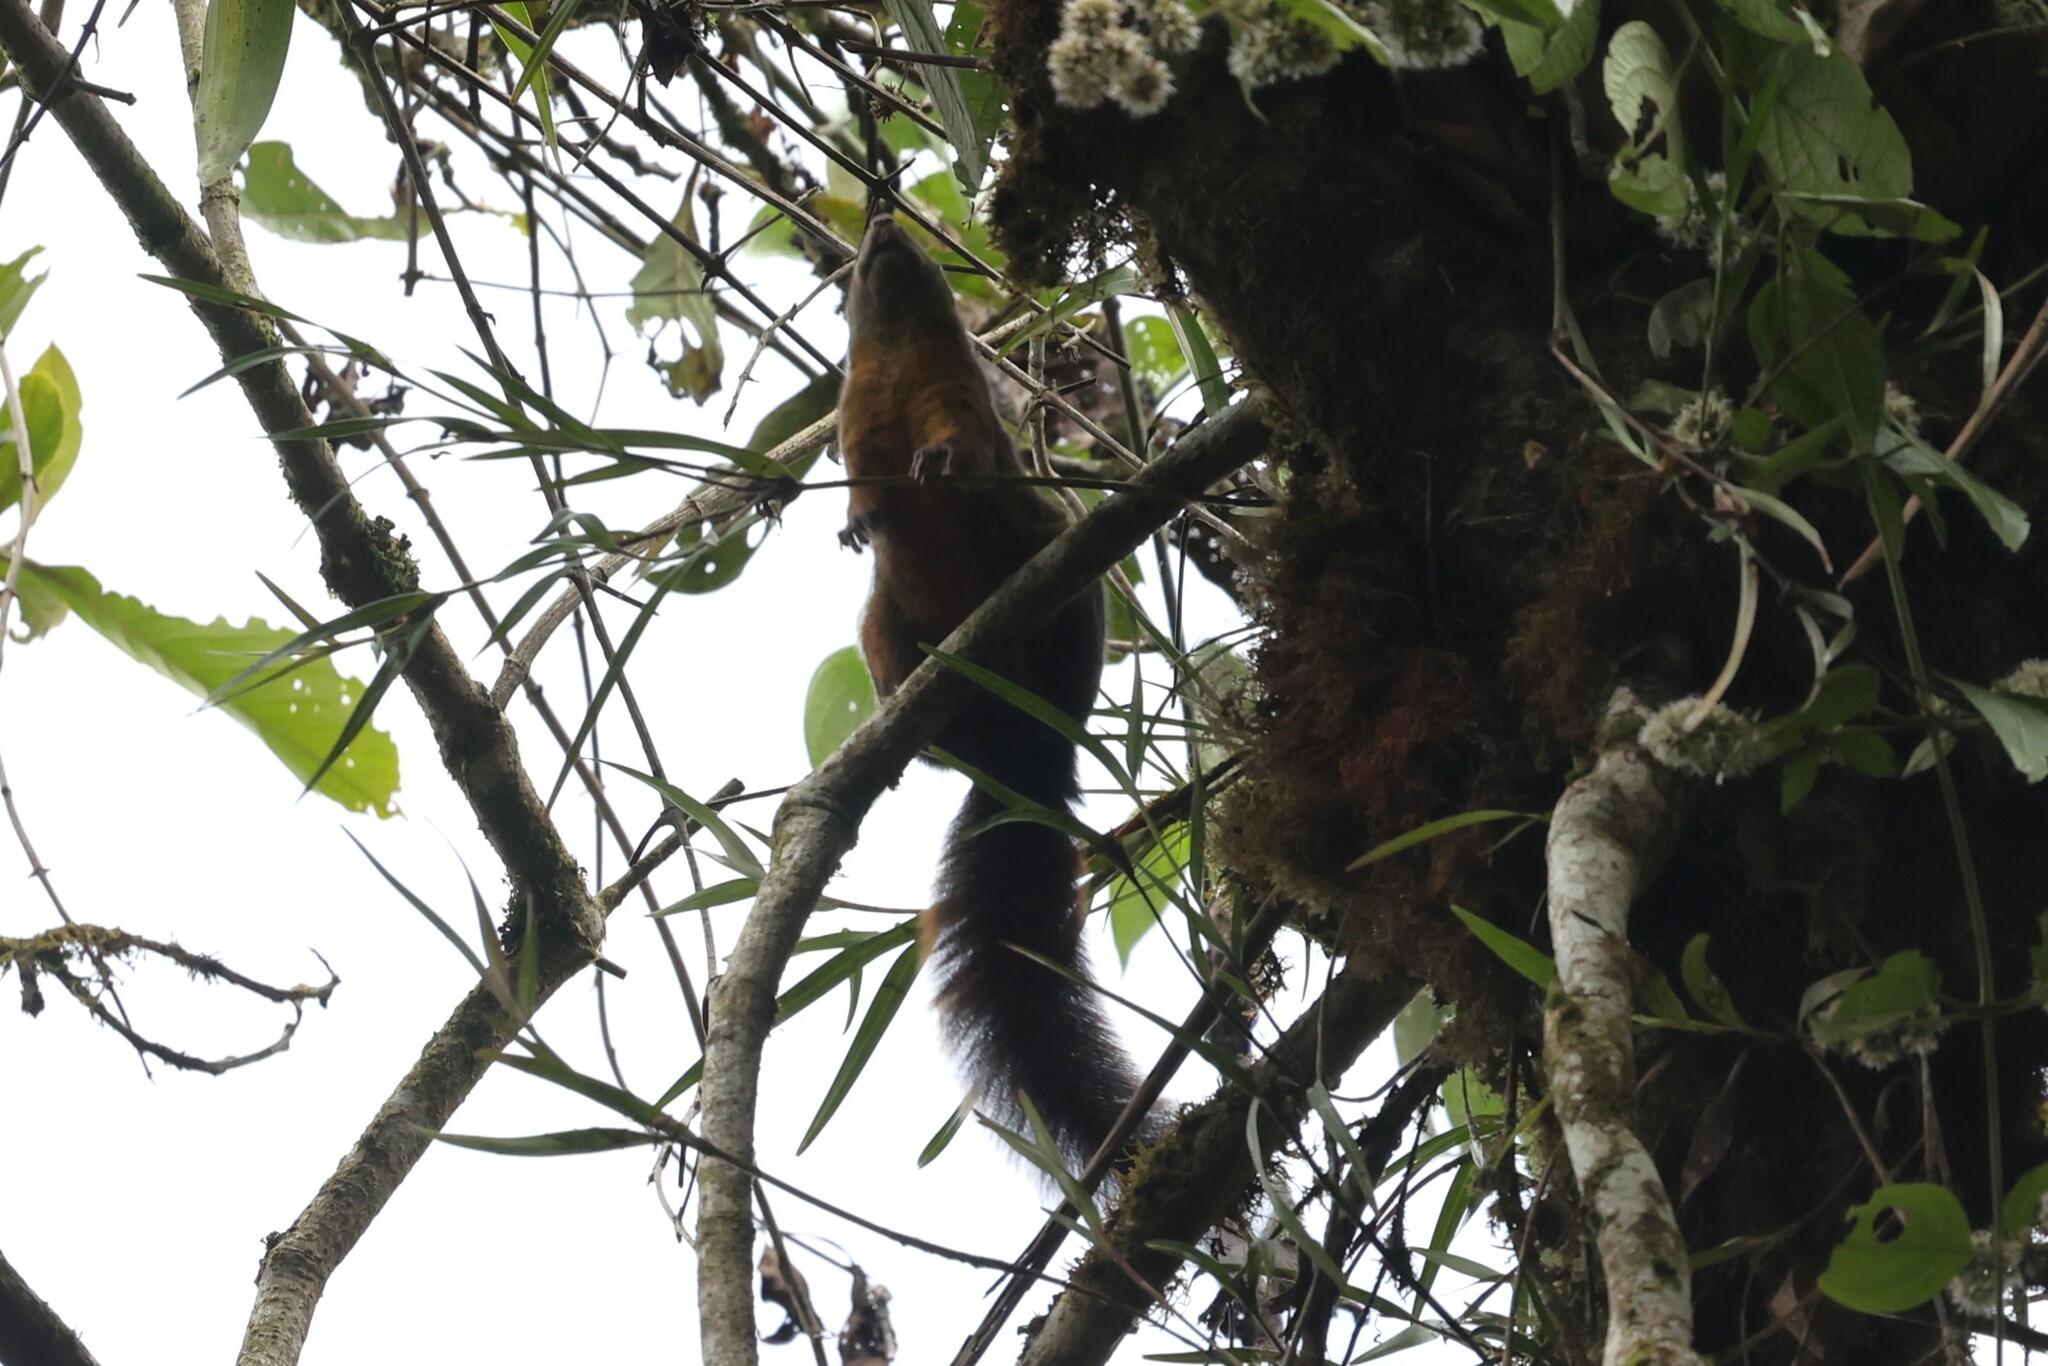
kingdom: Animalia
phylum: Chordata
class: Mammalia
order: Rodentia
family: Sciuridae
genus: Sciurus
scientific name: Sciurus granatensis
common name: Red-tailed squirrel
